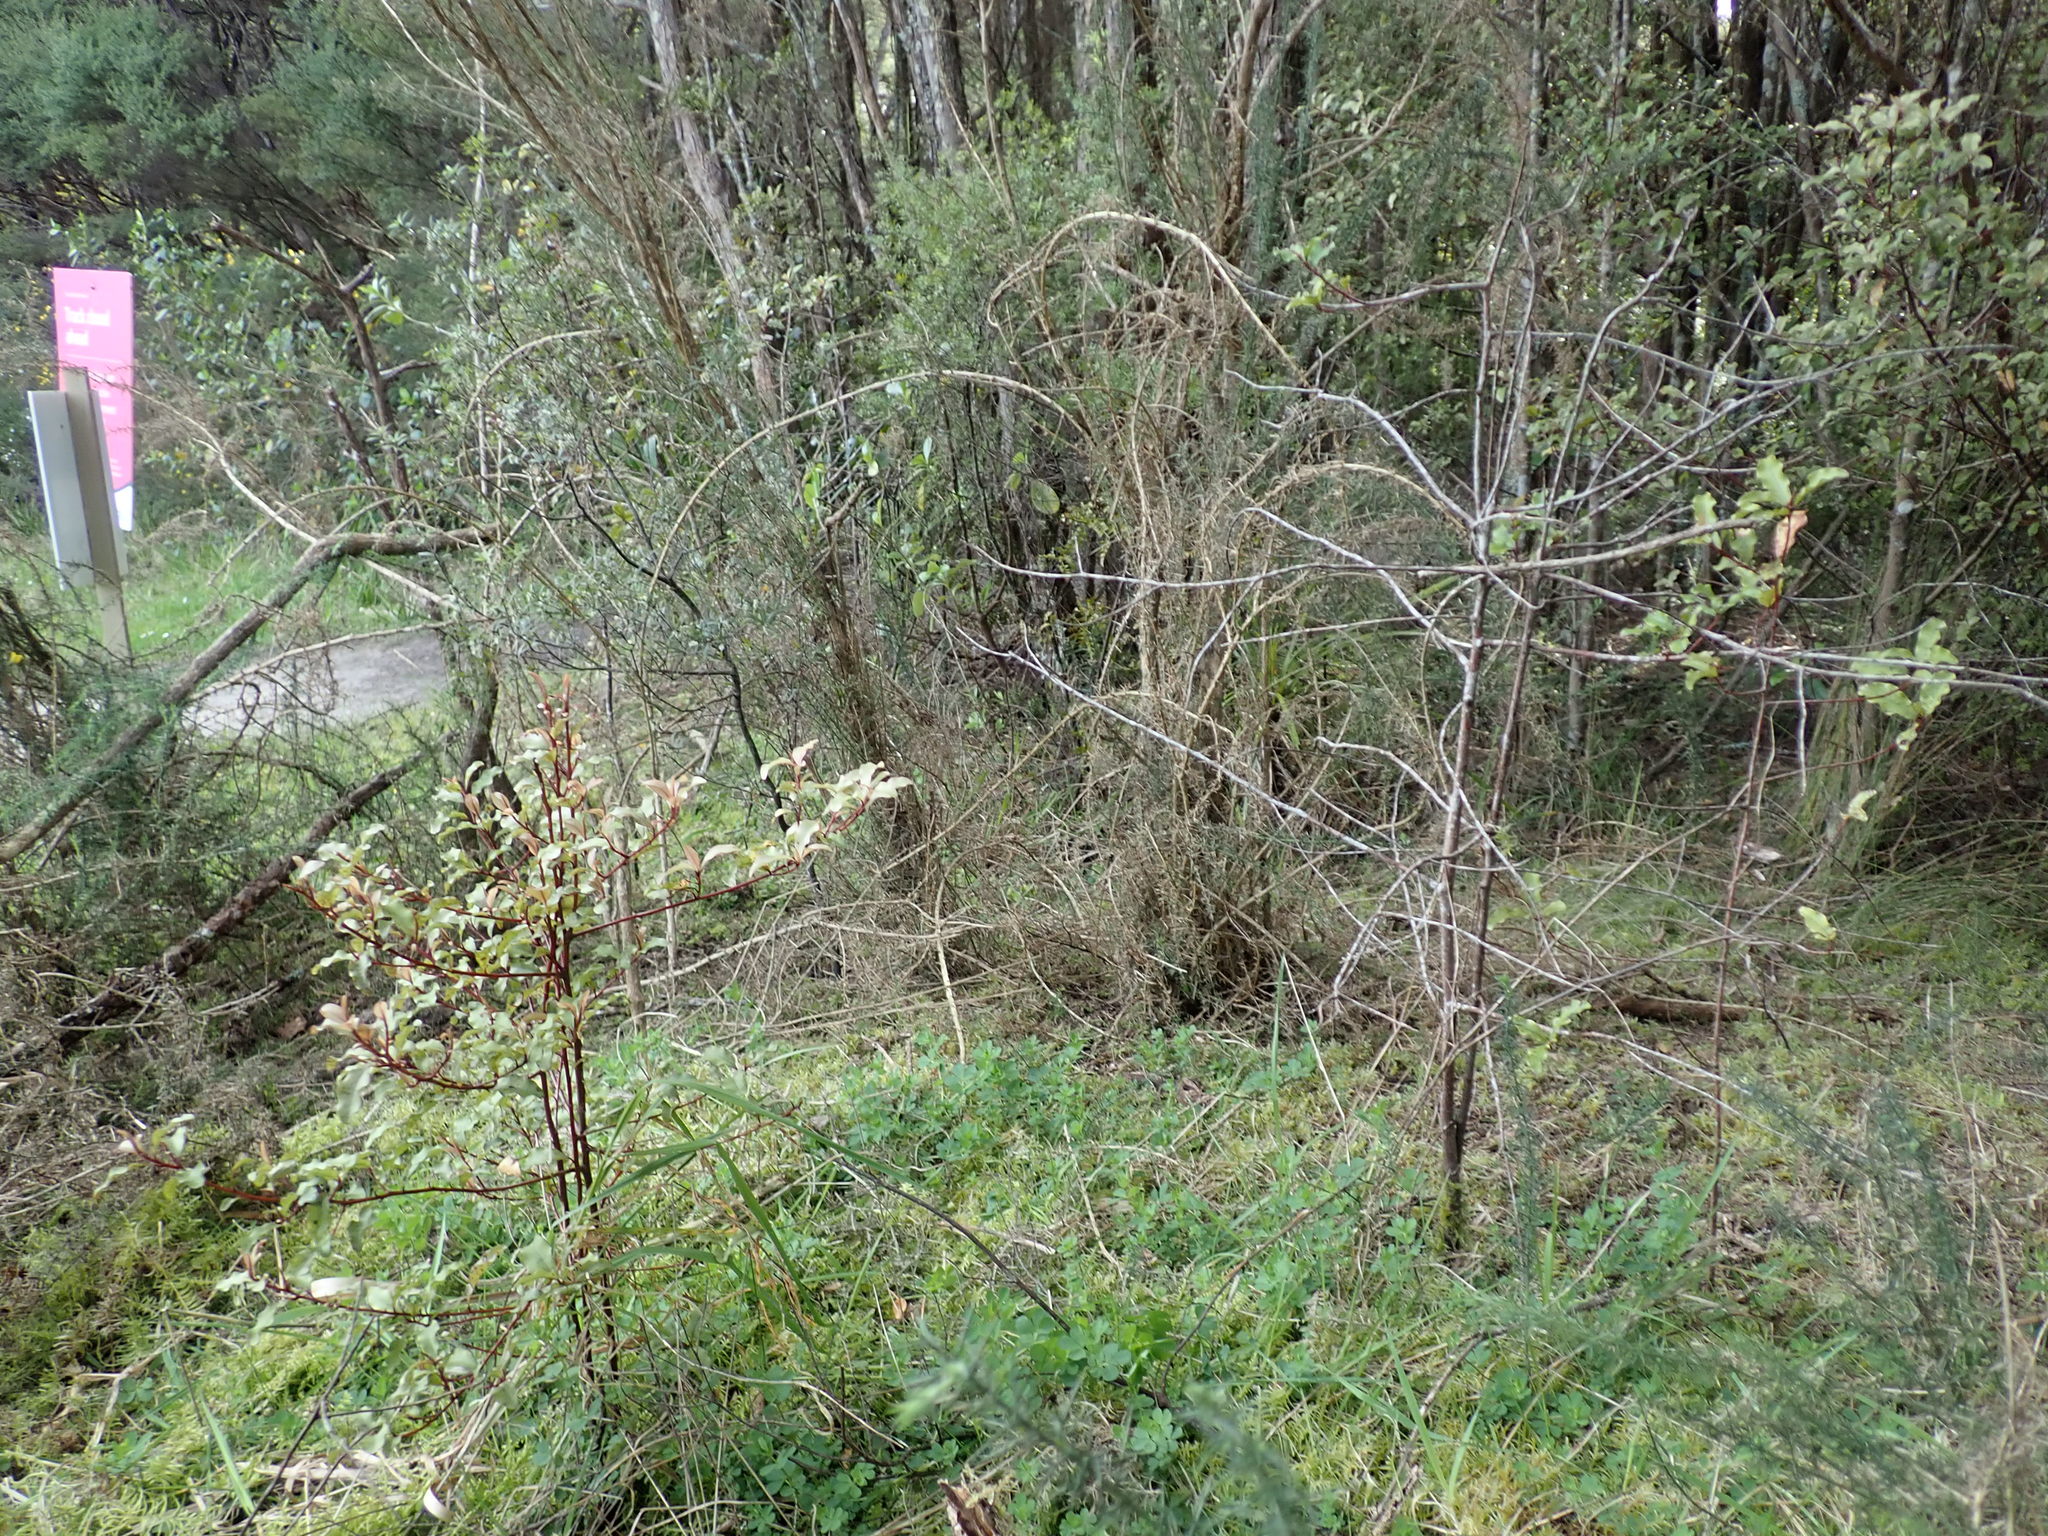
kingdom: Plantae
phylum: Tracheophyta
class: Magnoliopsida
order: Ericales
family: Primulaceae
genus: Myrsine
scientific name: Myrsine australis
